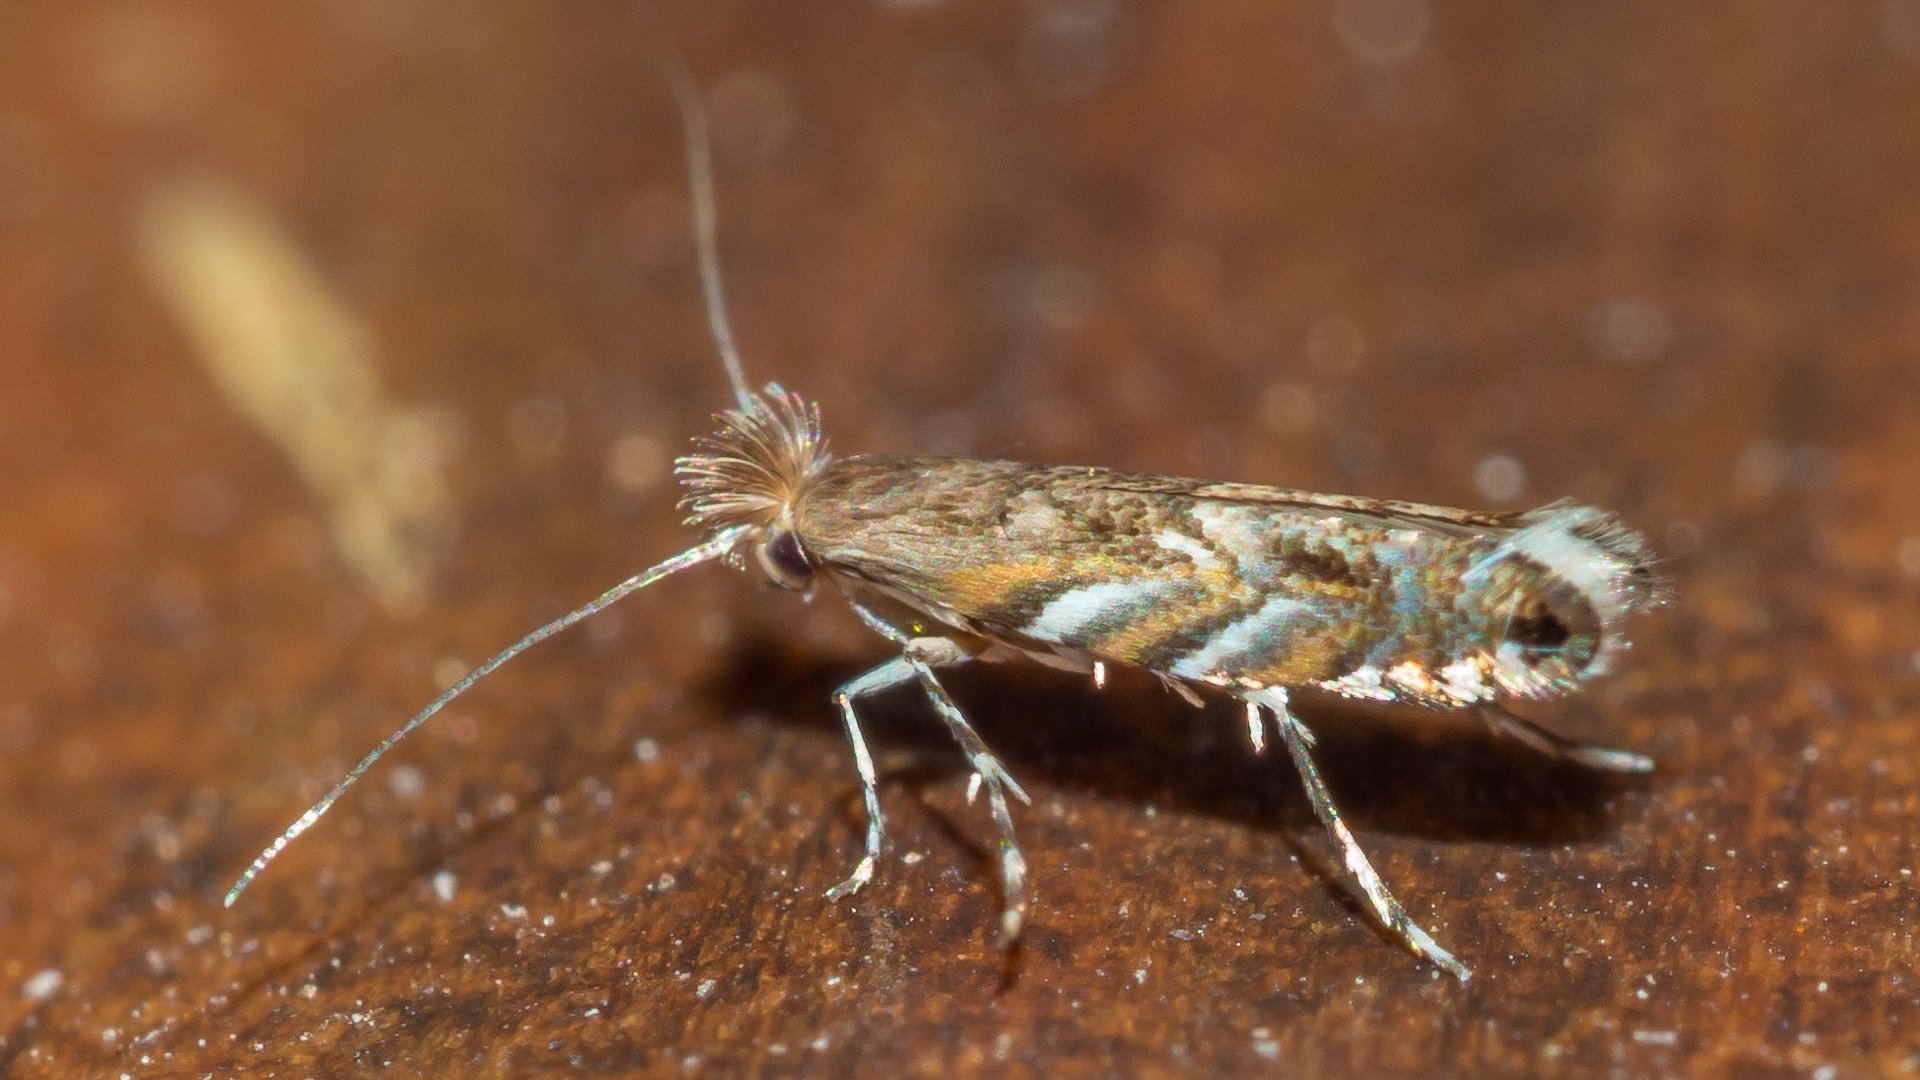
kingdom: Animalia
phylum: Arthropoda
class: Insecta
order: Lepidoptera
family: Gracillariidae
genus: Macrosaccus
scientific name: Macrosaccus robiniella
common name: Leaf blotch miner moth
